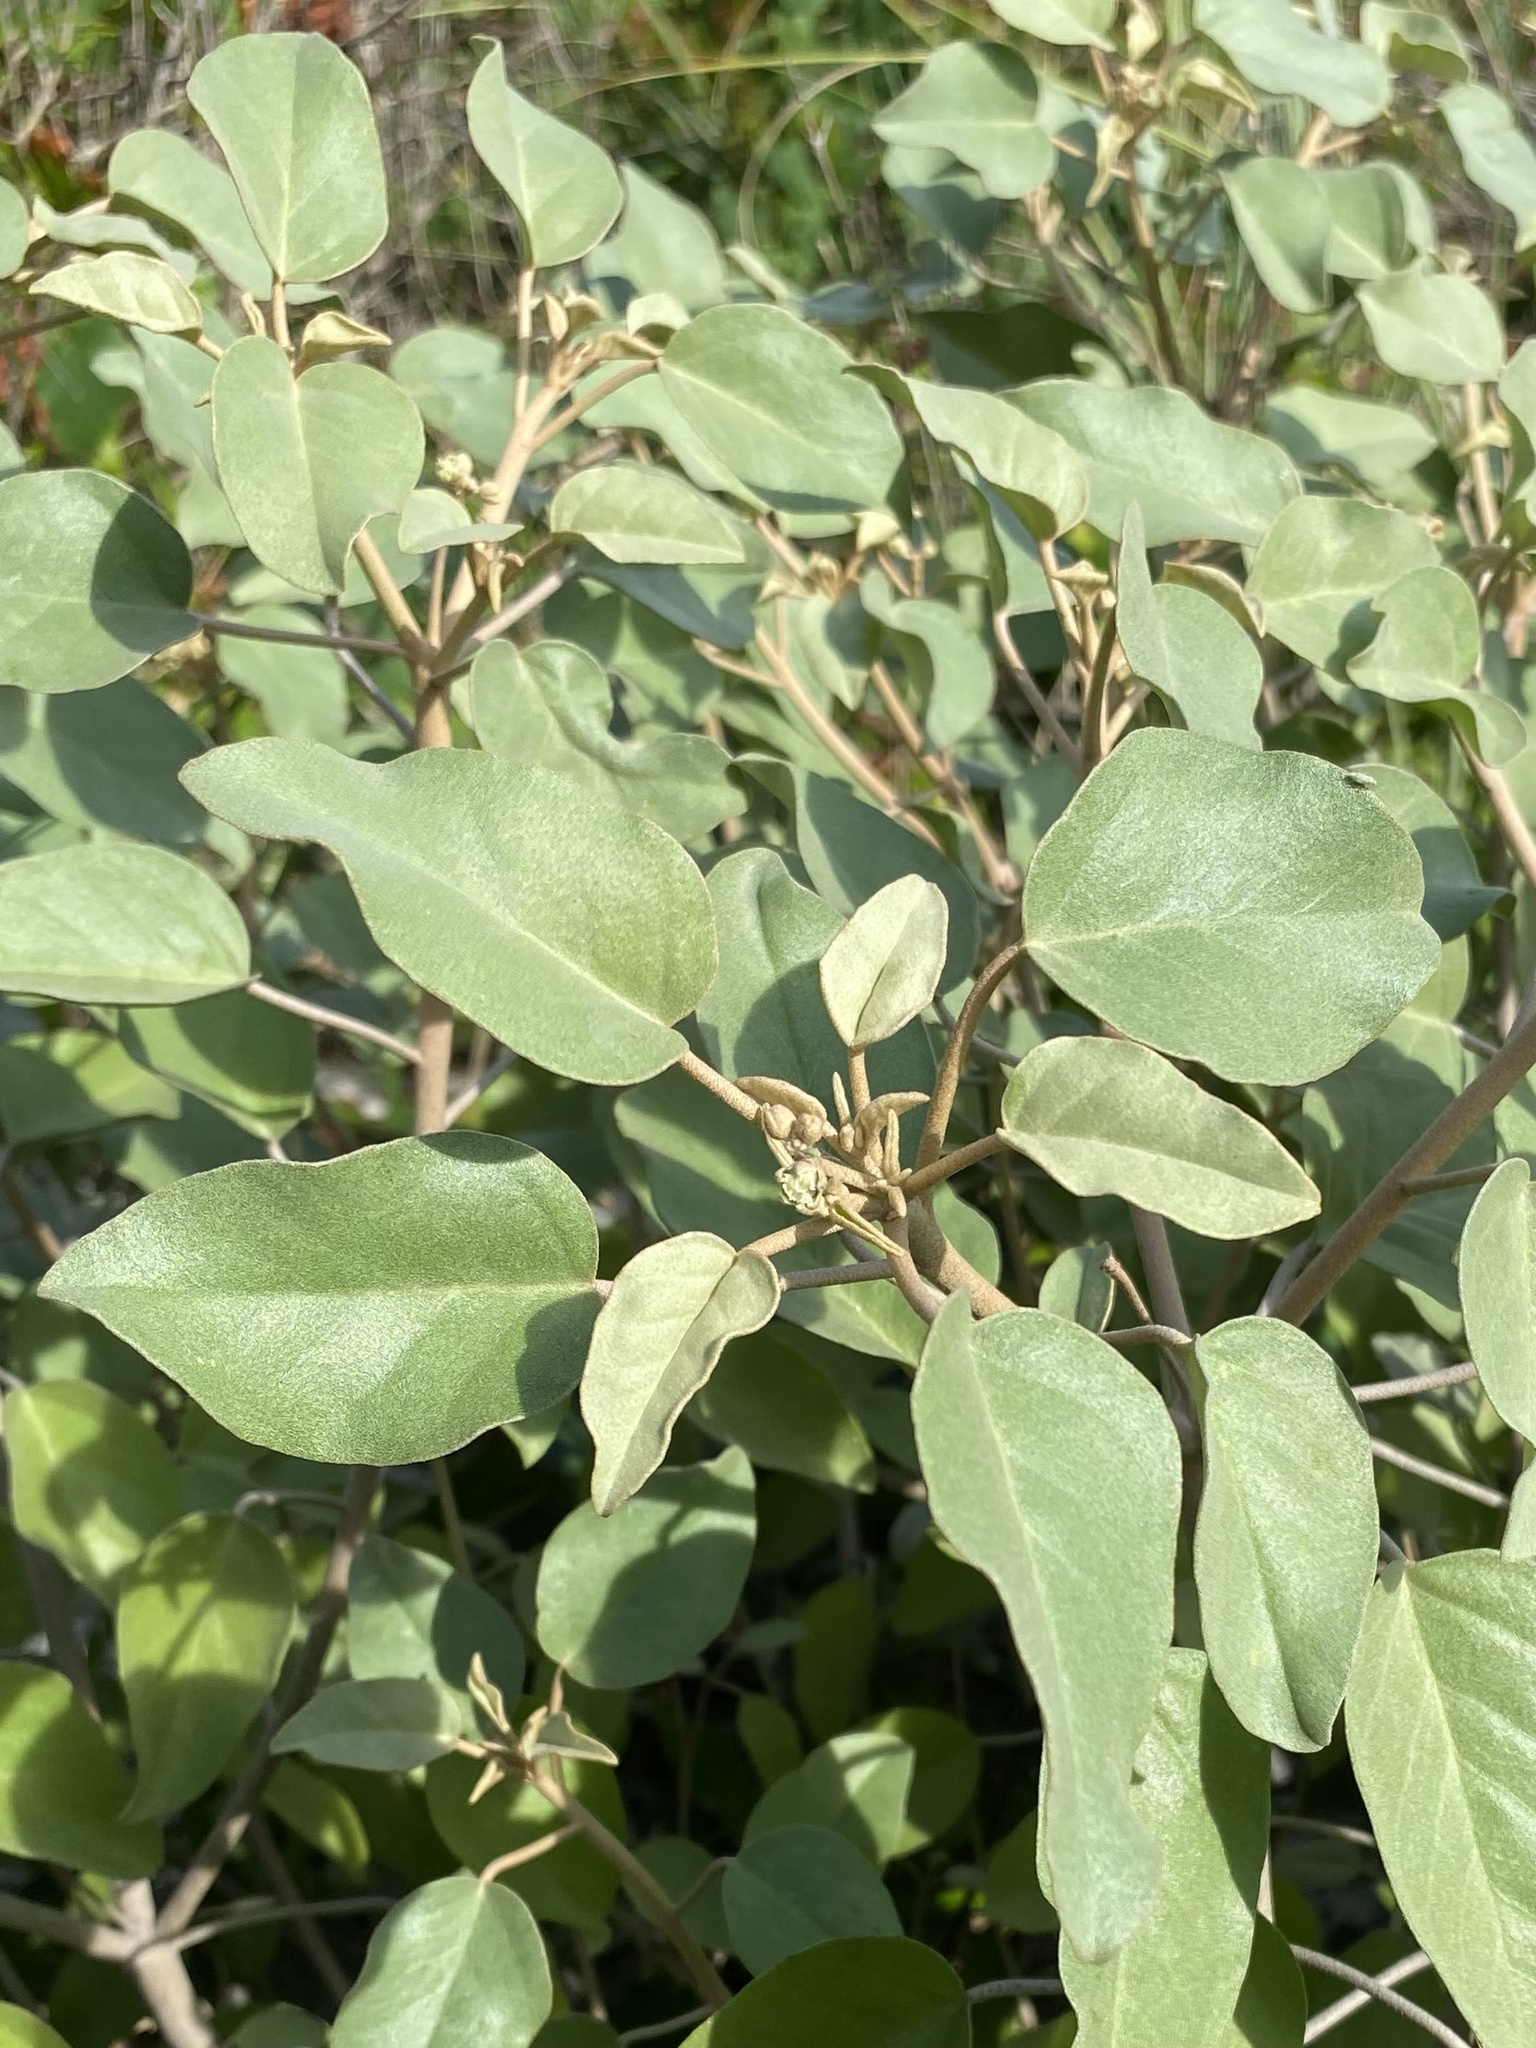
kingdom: Plantae
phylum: Tracheophyta
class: Magnoliopsida
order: Malpighiales
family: Euphorbiaceae
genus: Croton
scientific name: Croton punctatus
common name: Beach-tea
